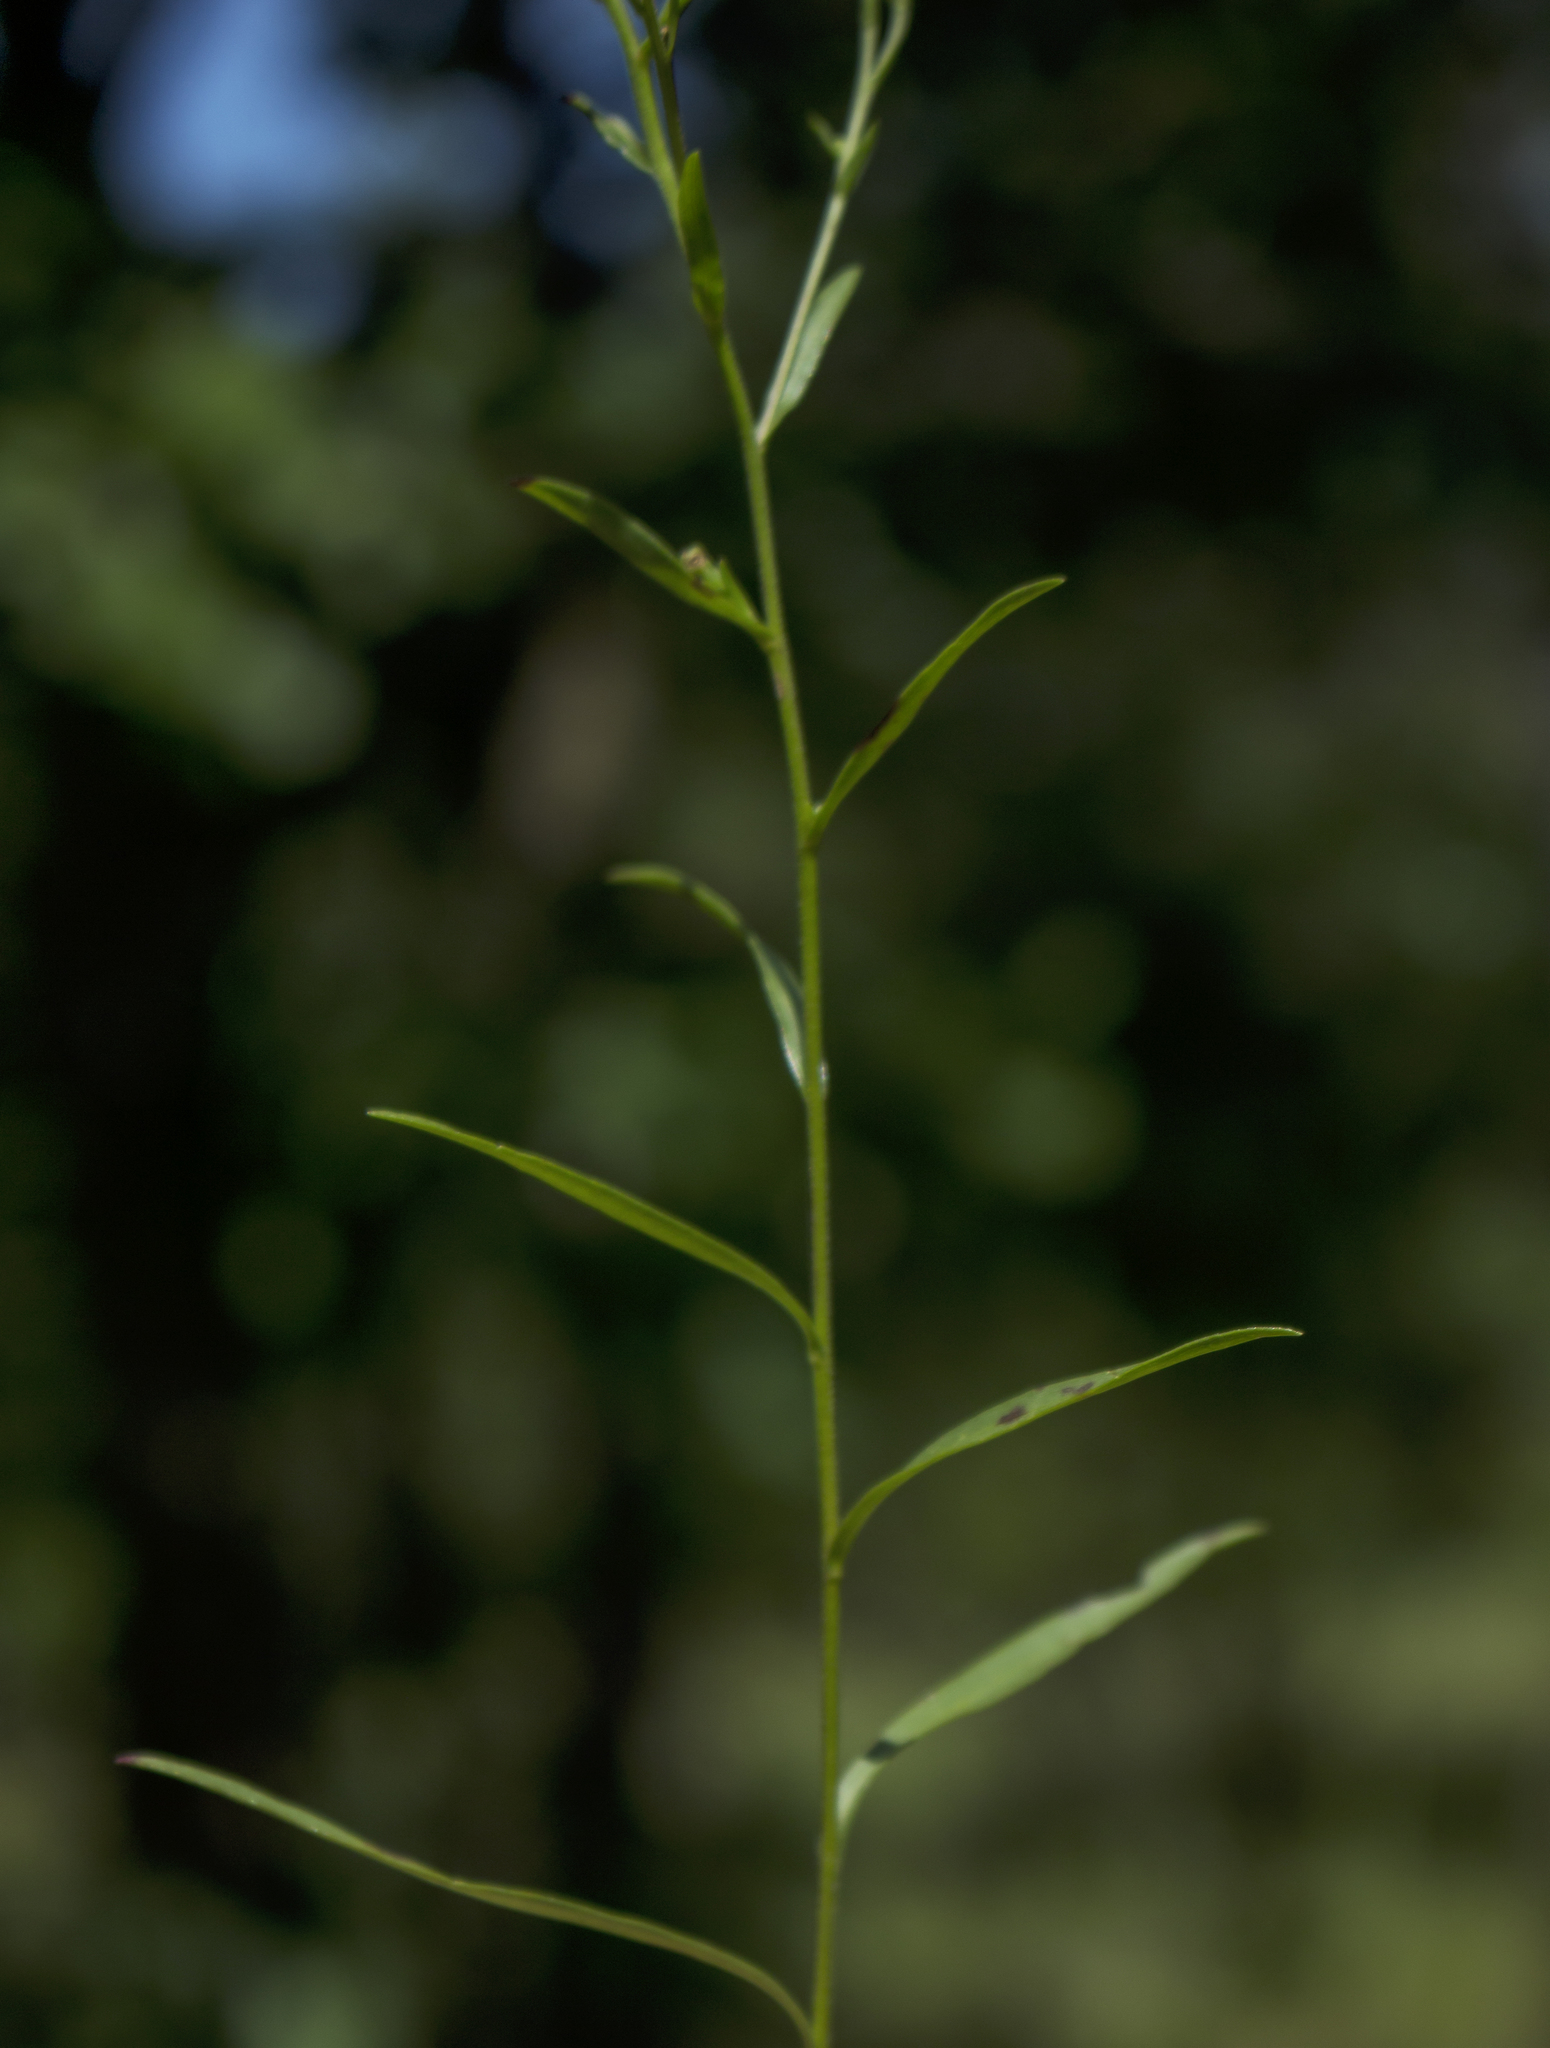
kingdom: Plantae
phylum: Tracheophyta
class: Magnoliopsida
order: Asterales
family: Asteraceae
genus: Solidago
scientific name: Solidago ptarmicoides
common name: White flat-top goldenrod
